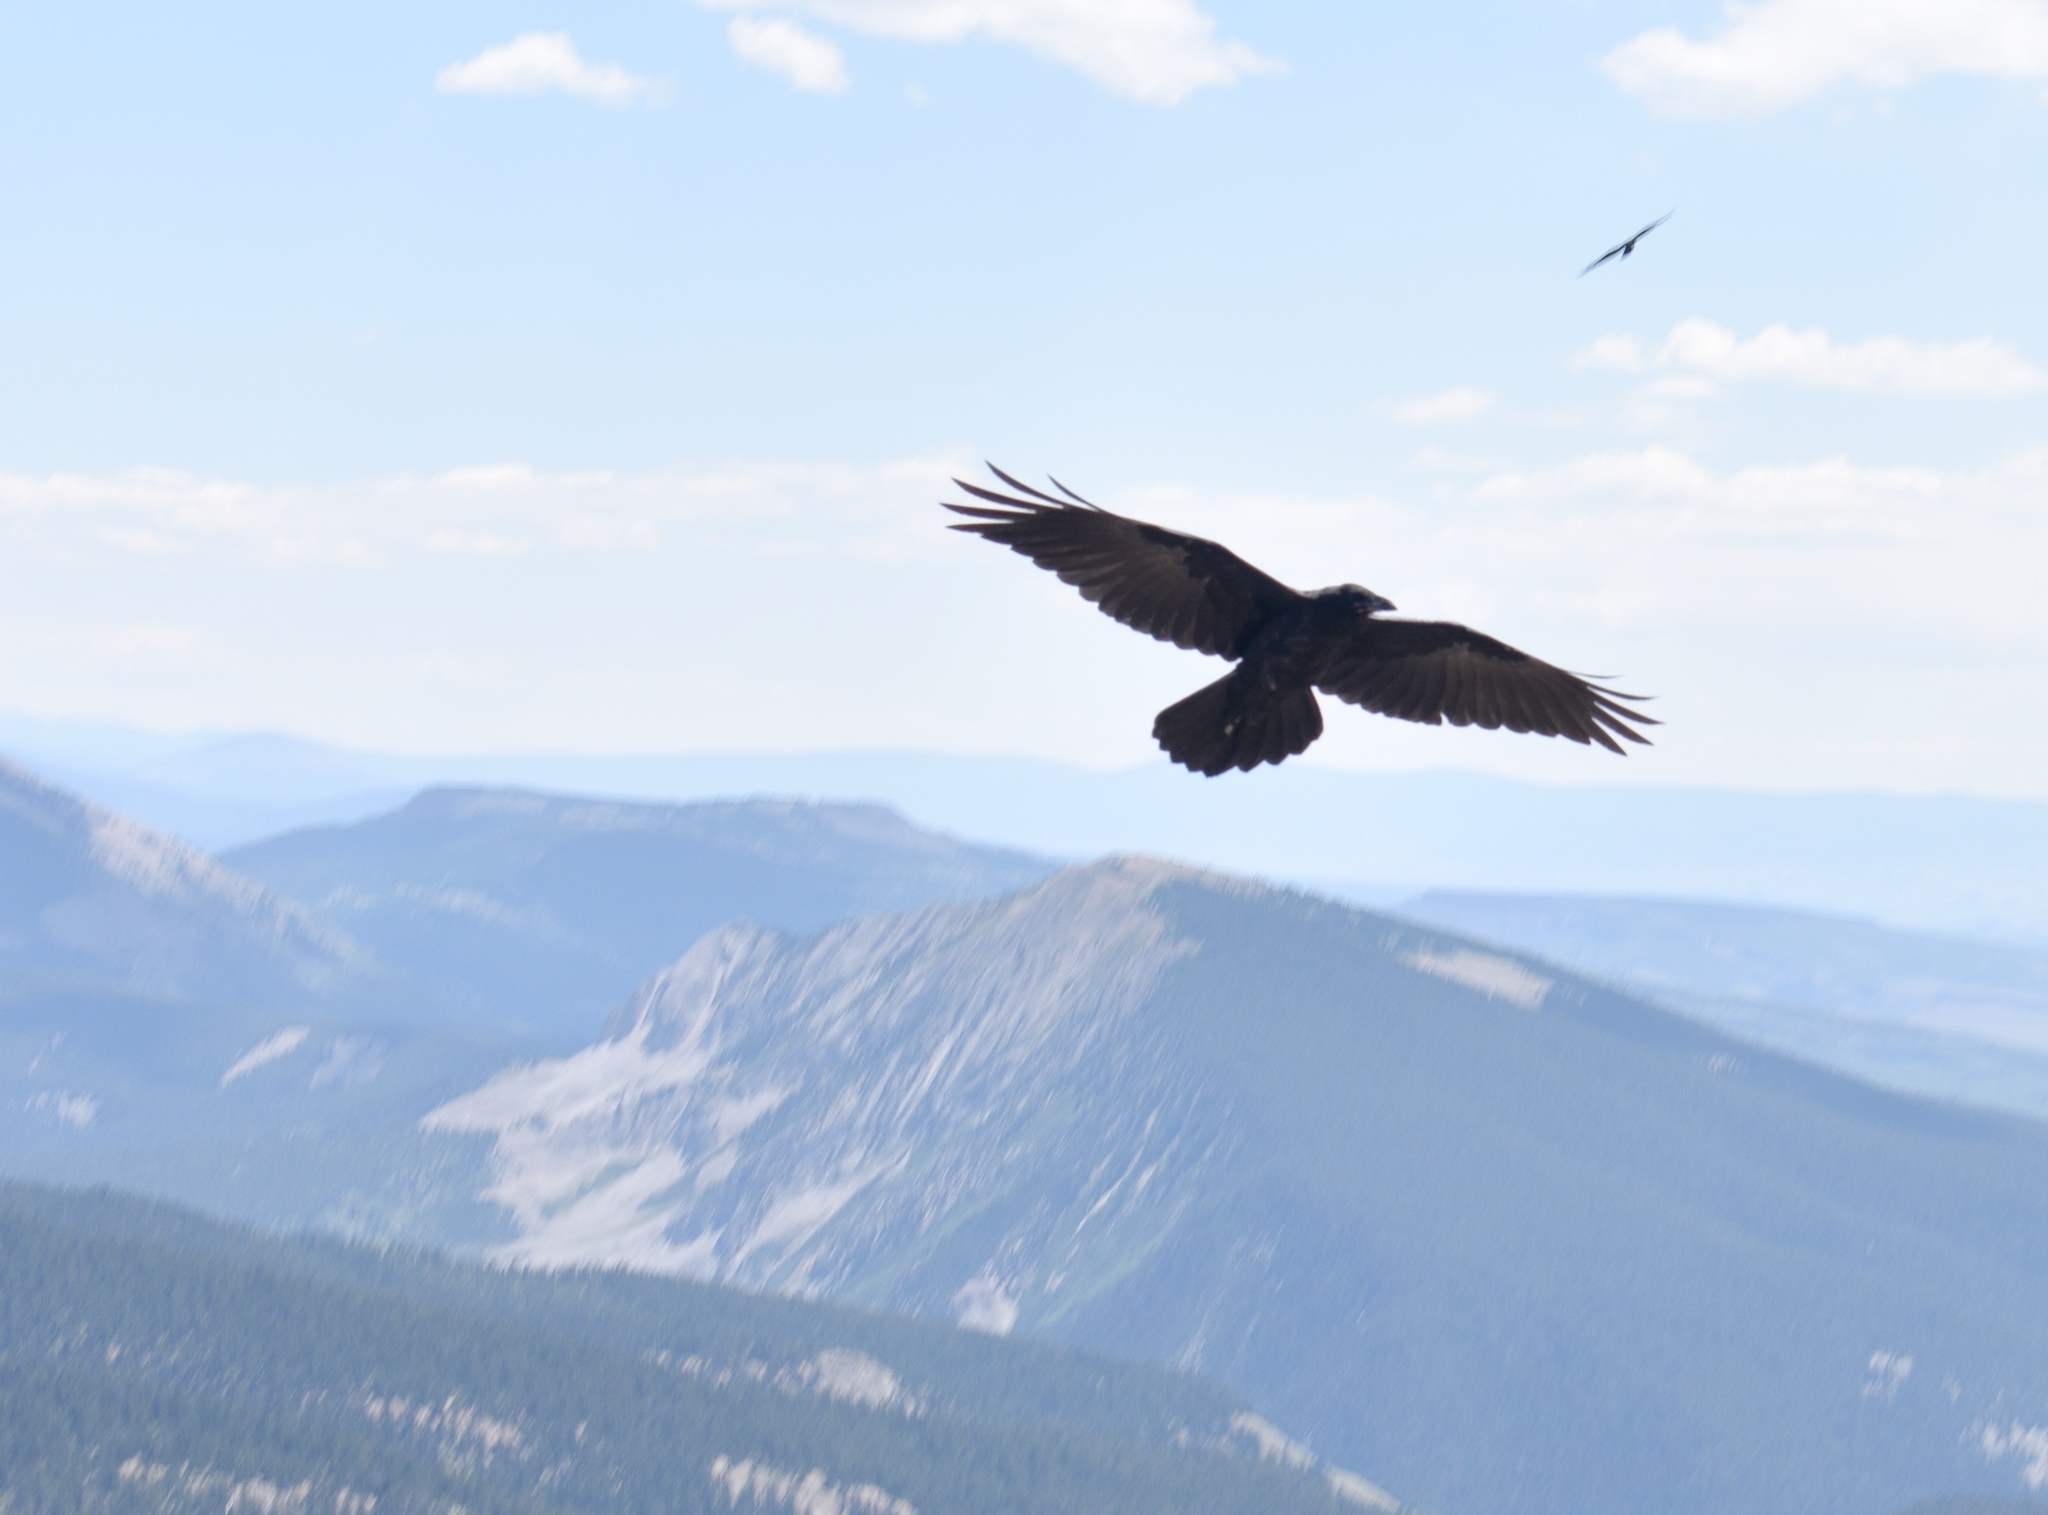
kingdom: Animalia
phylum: Chordata
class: Aves
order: Passeriformes
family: Corvidae
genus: Corvus
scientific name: Corvus corax
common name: Common raven
